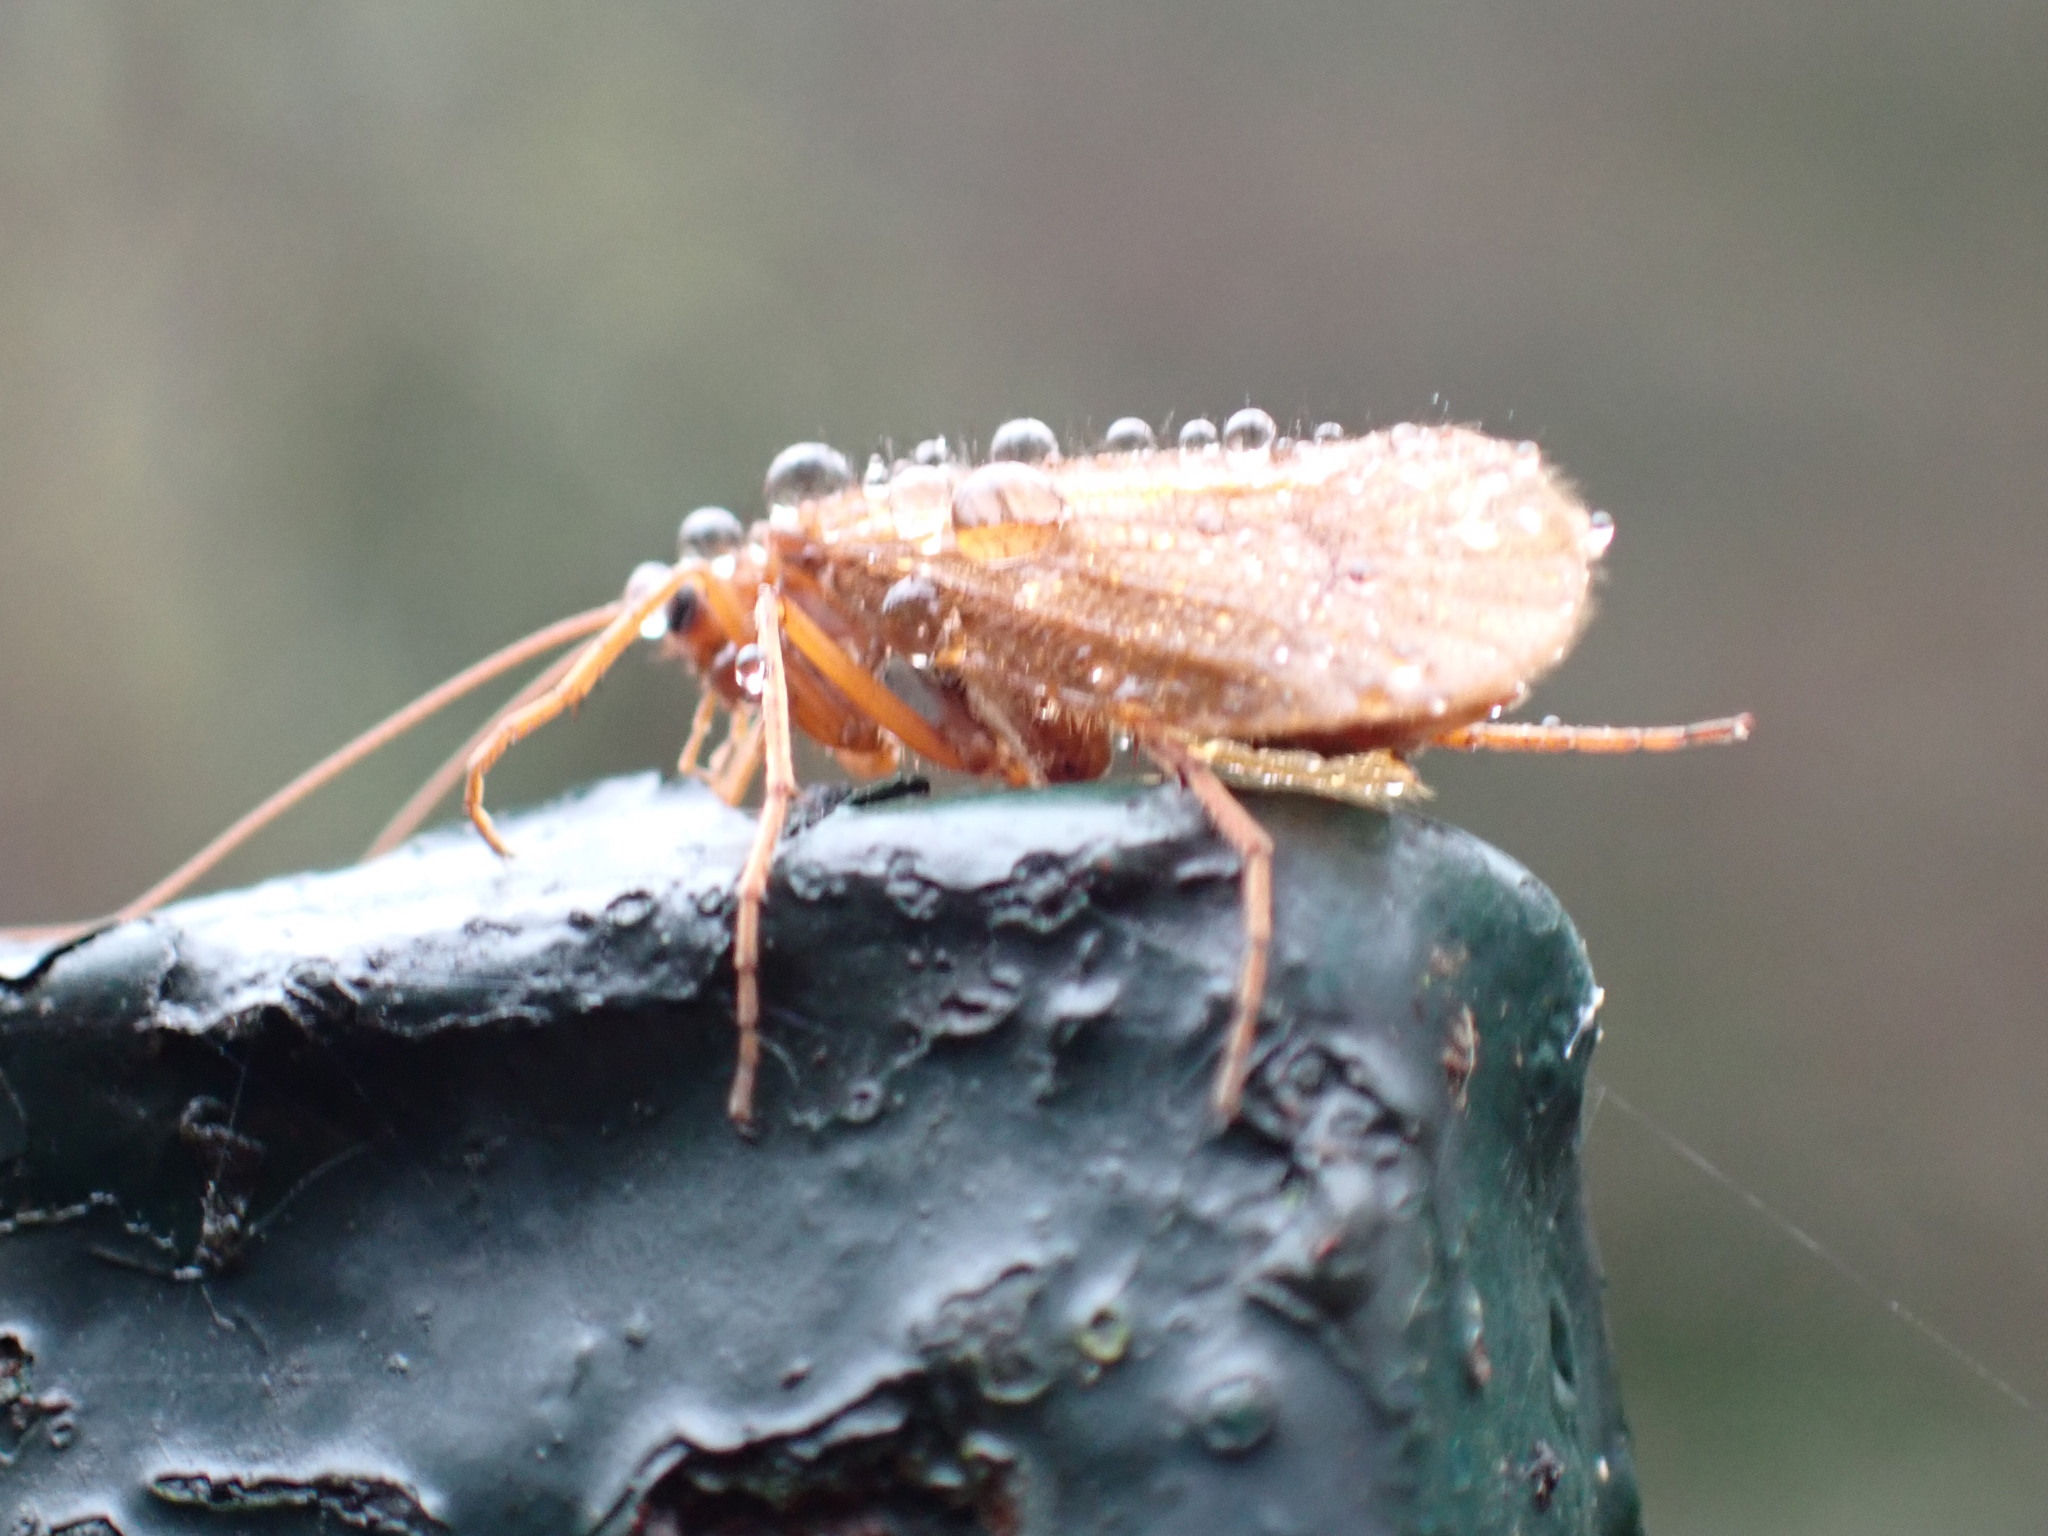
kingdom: Animalia
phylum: Arthropoda
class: Insecta
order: Trichoptera
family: Limnephilidae
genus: Chaetopteryx
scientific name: Chaetopteryx villosa
